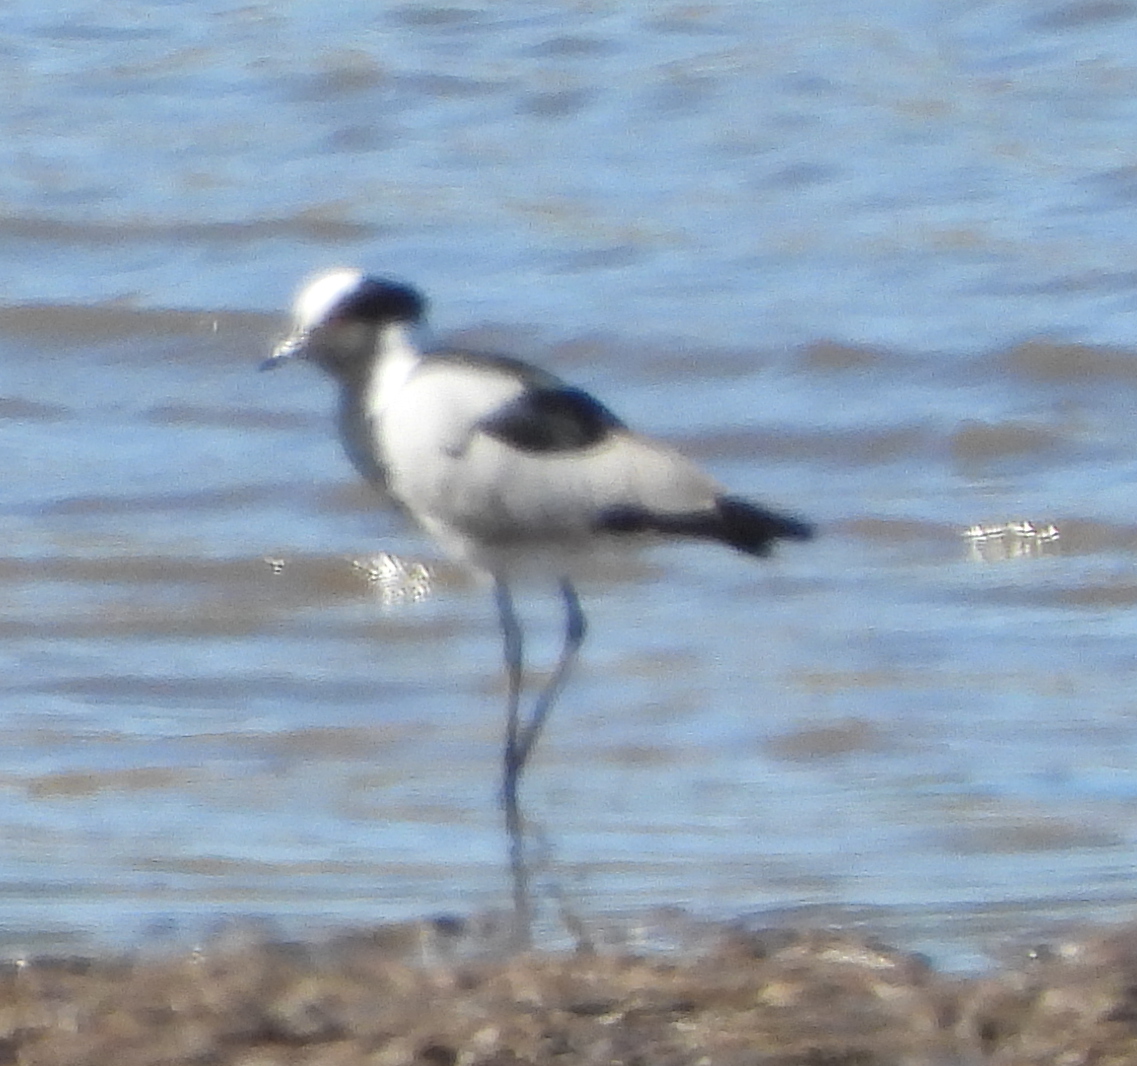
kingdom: Animalia
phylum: Chordata
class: Aves
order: Charadriiformes
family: Charadriidae
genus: Vanellus
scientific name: Vanellus armatus
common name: Blacksmith lapwing
